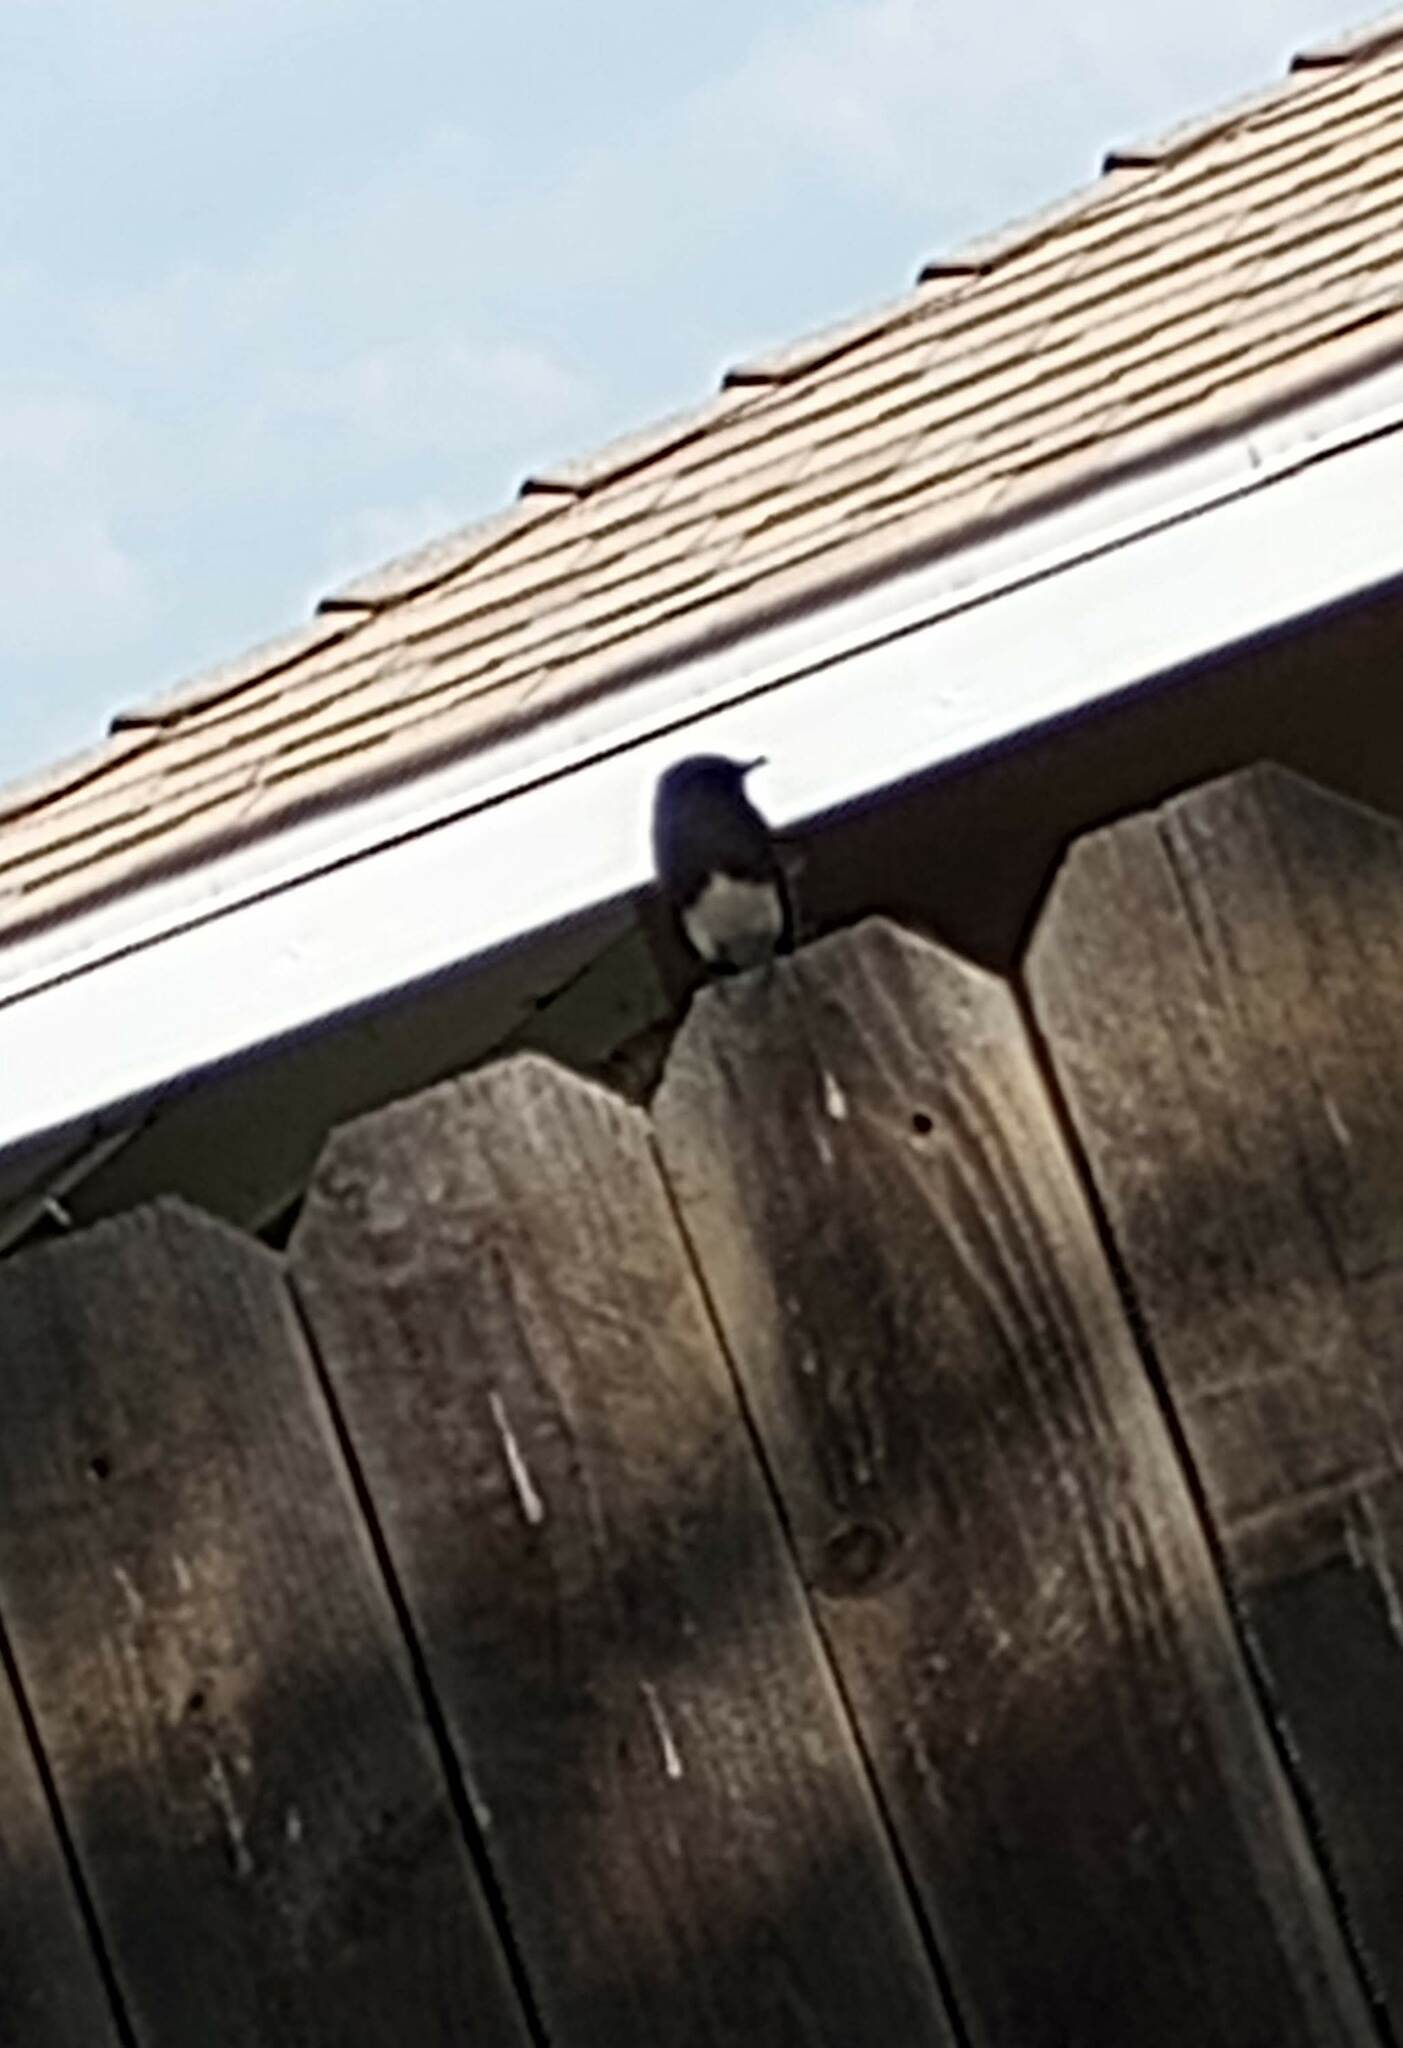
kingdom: Animalia
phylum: Chordata
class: Aves
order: Passeriformes
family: Tyrannidae
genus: Sayornis
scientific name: Sayornis nigricans
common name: Black phoebe
